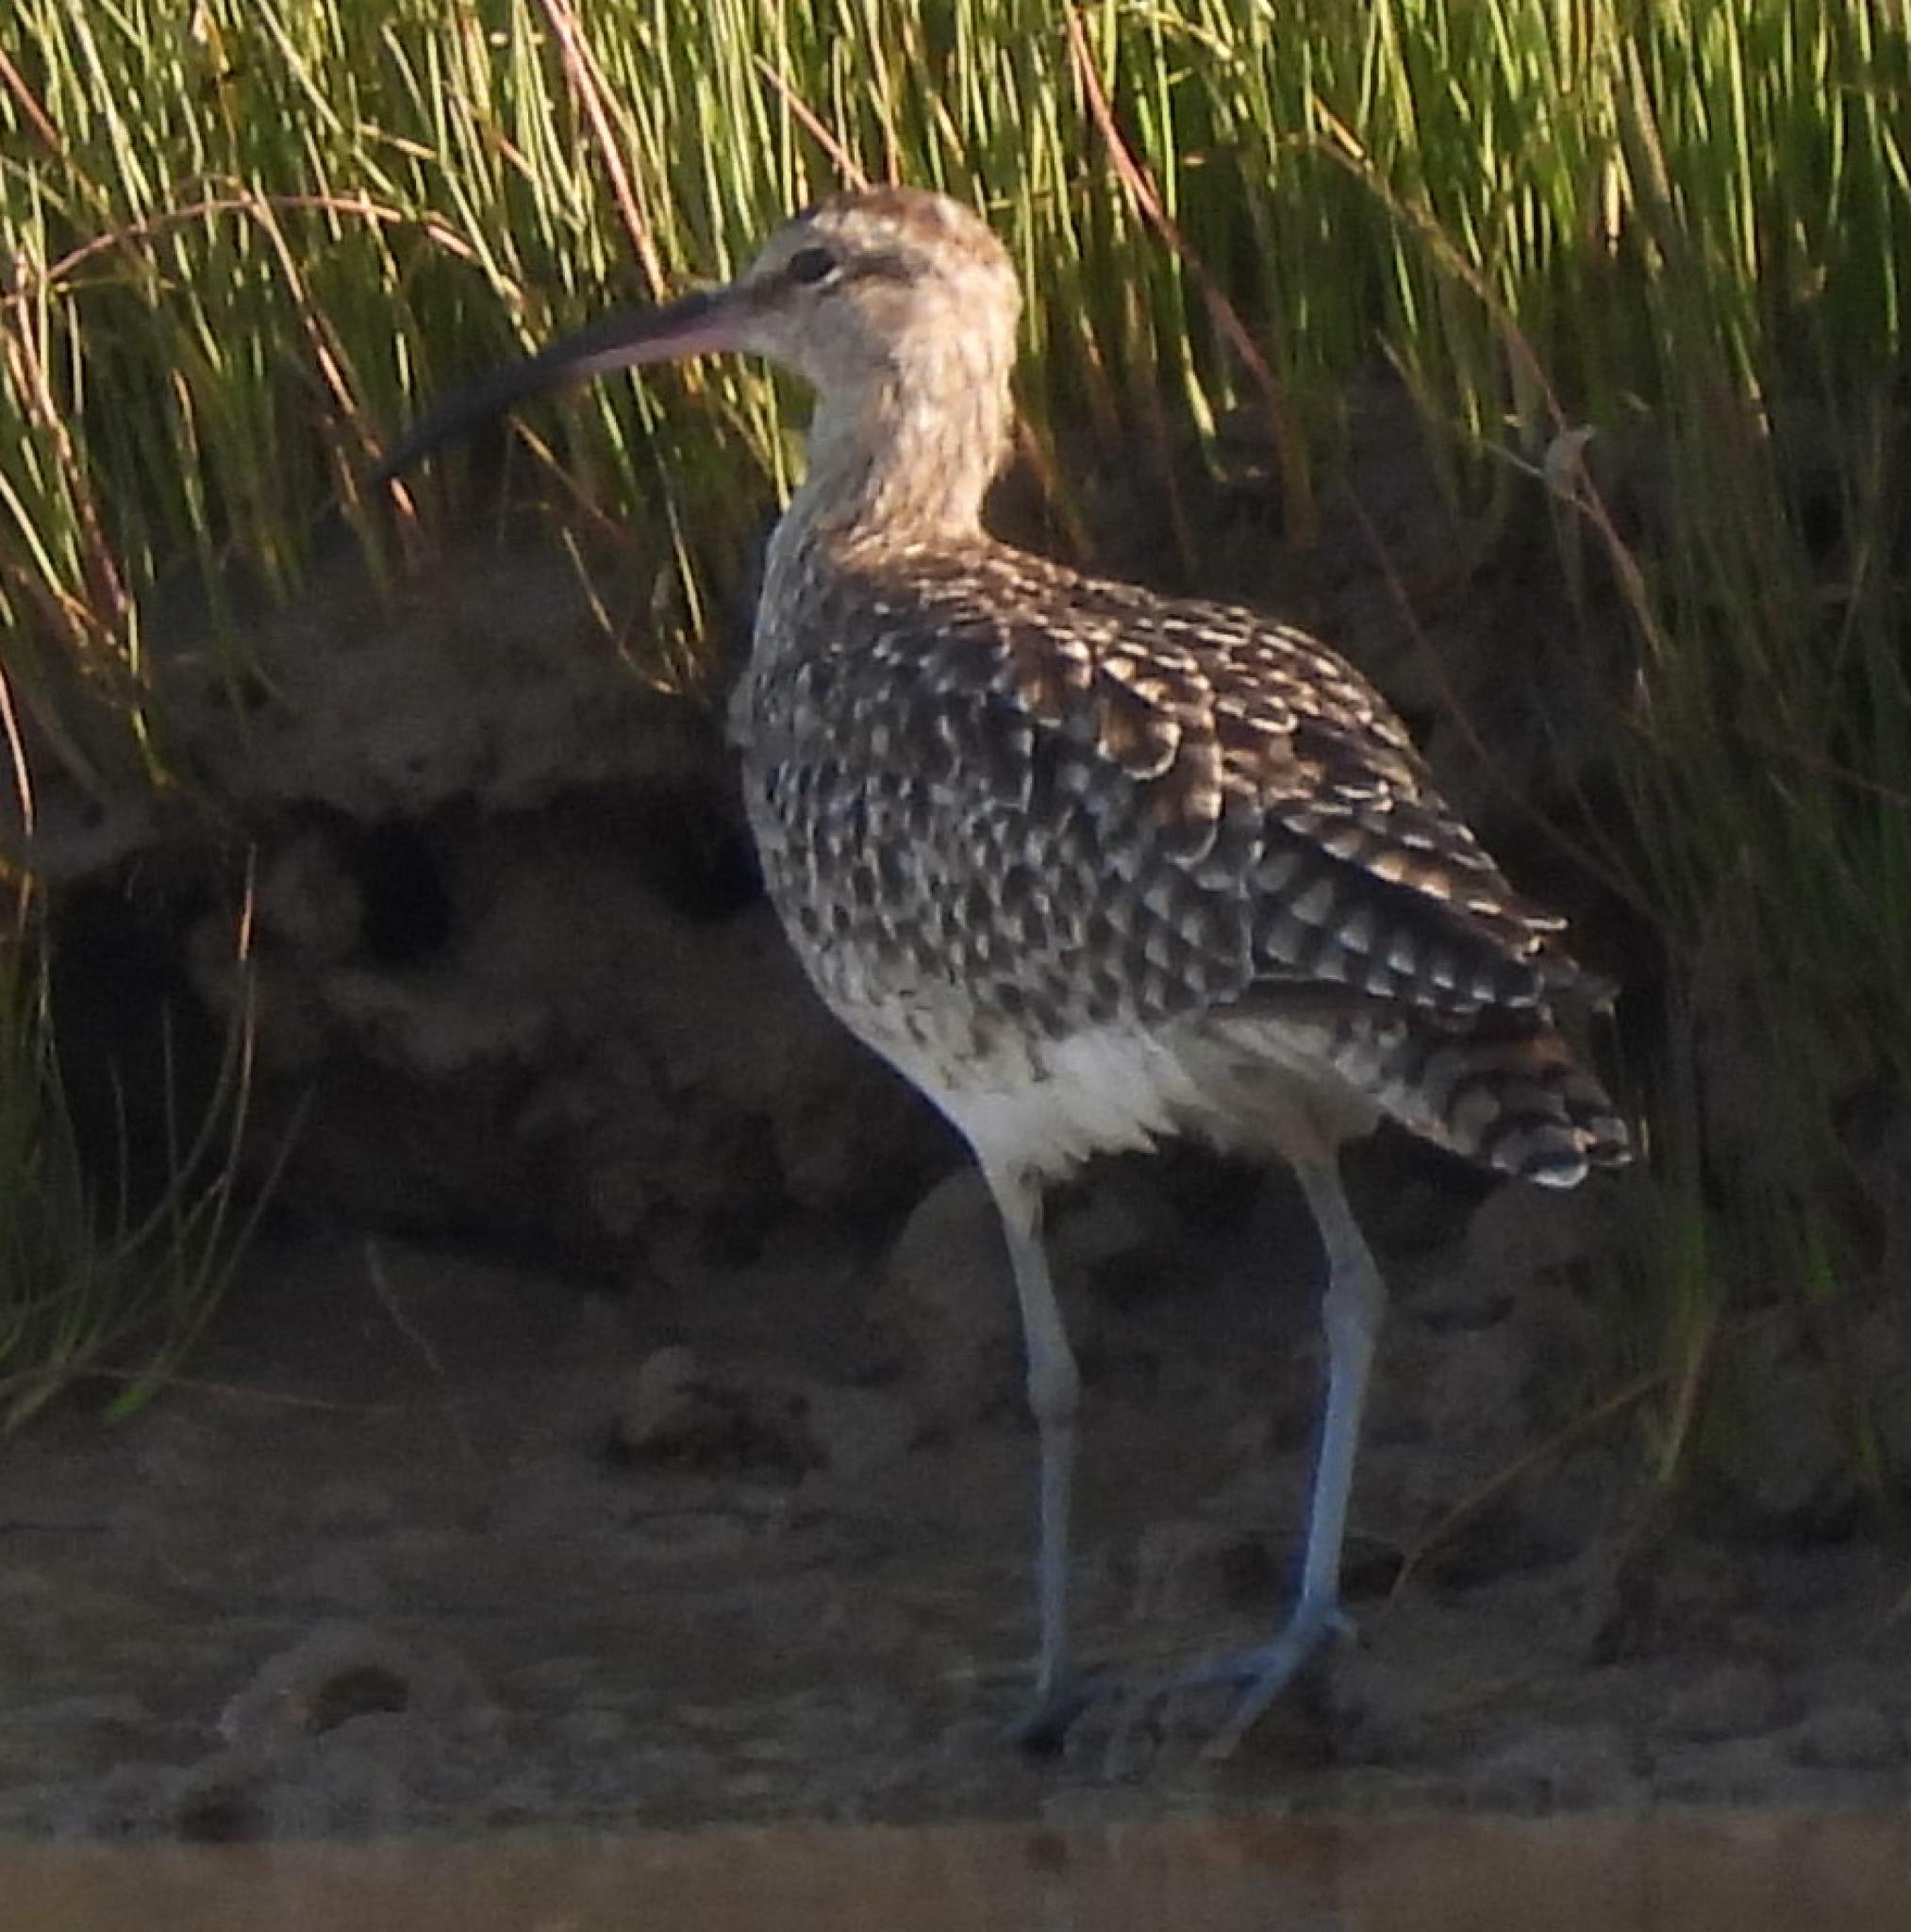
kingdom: Animalia
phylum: Chordata
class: Aves
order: Charadriiformes
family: Scolopacidae
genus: Numenius
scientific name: Numenius phaeopus
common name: Whimbrel
